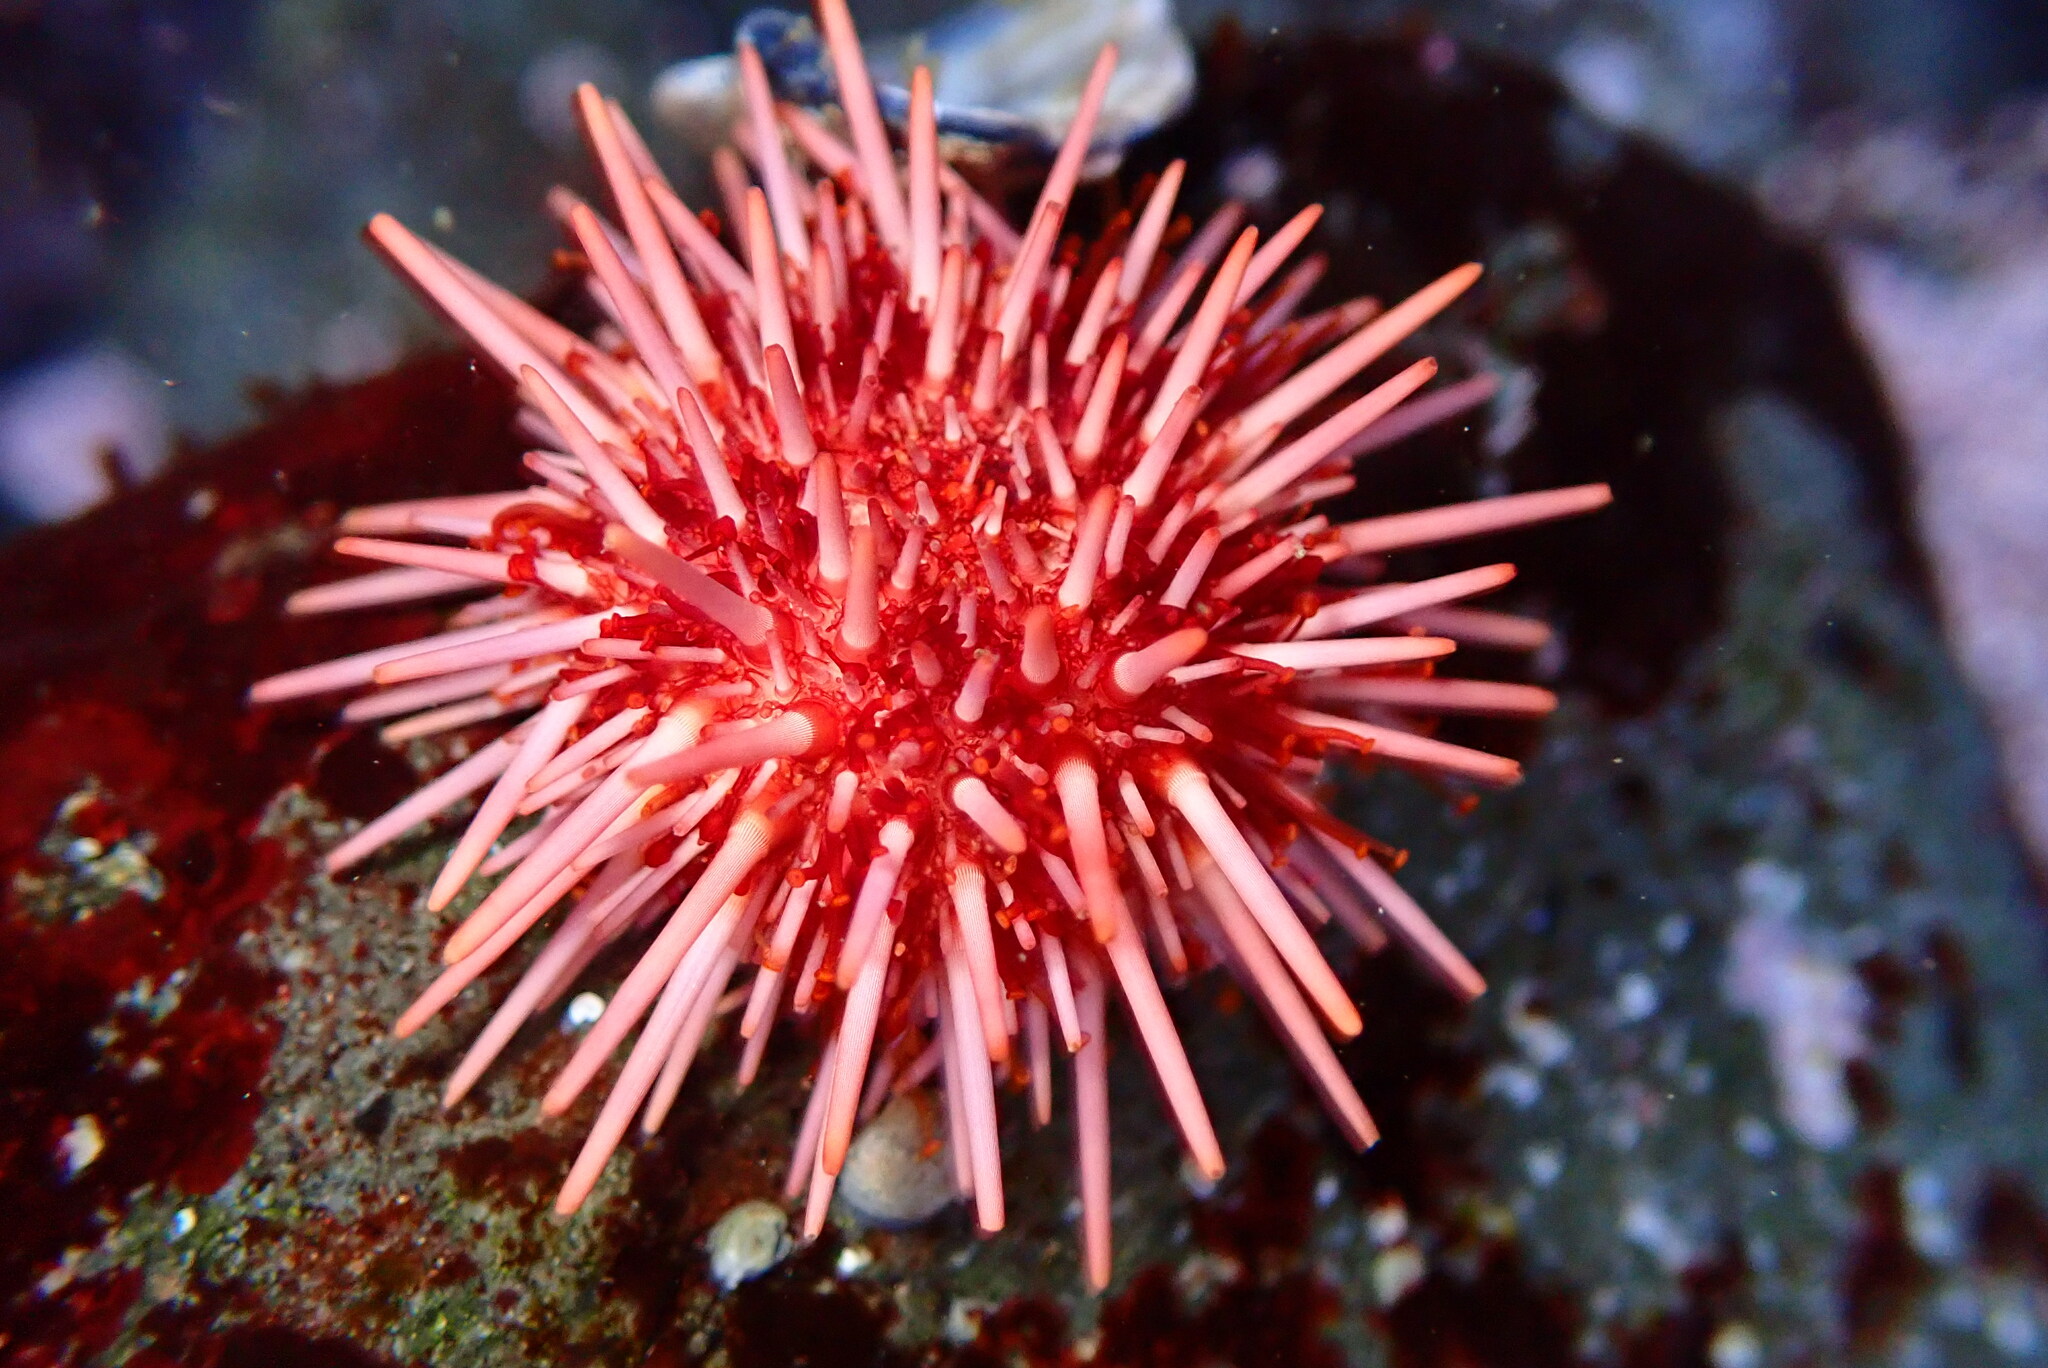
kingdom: Animalia
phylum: Echinodermata
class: Echinoidea
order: Camarodonta
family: Strongylocentrotidae
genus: Mesocentrotus
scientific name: Mesocentrotus franciscanus
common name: Red sea urchin
